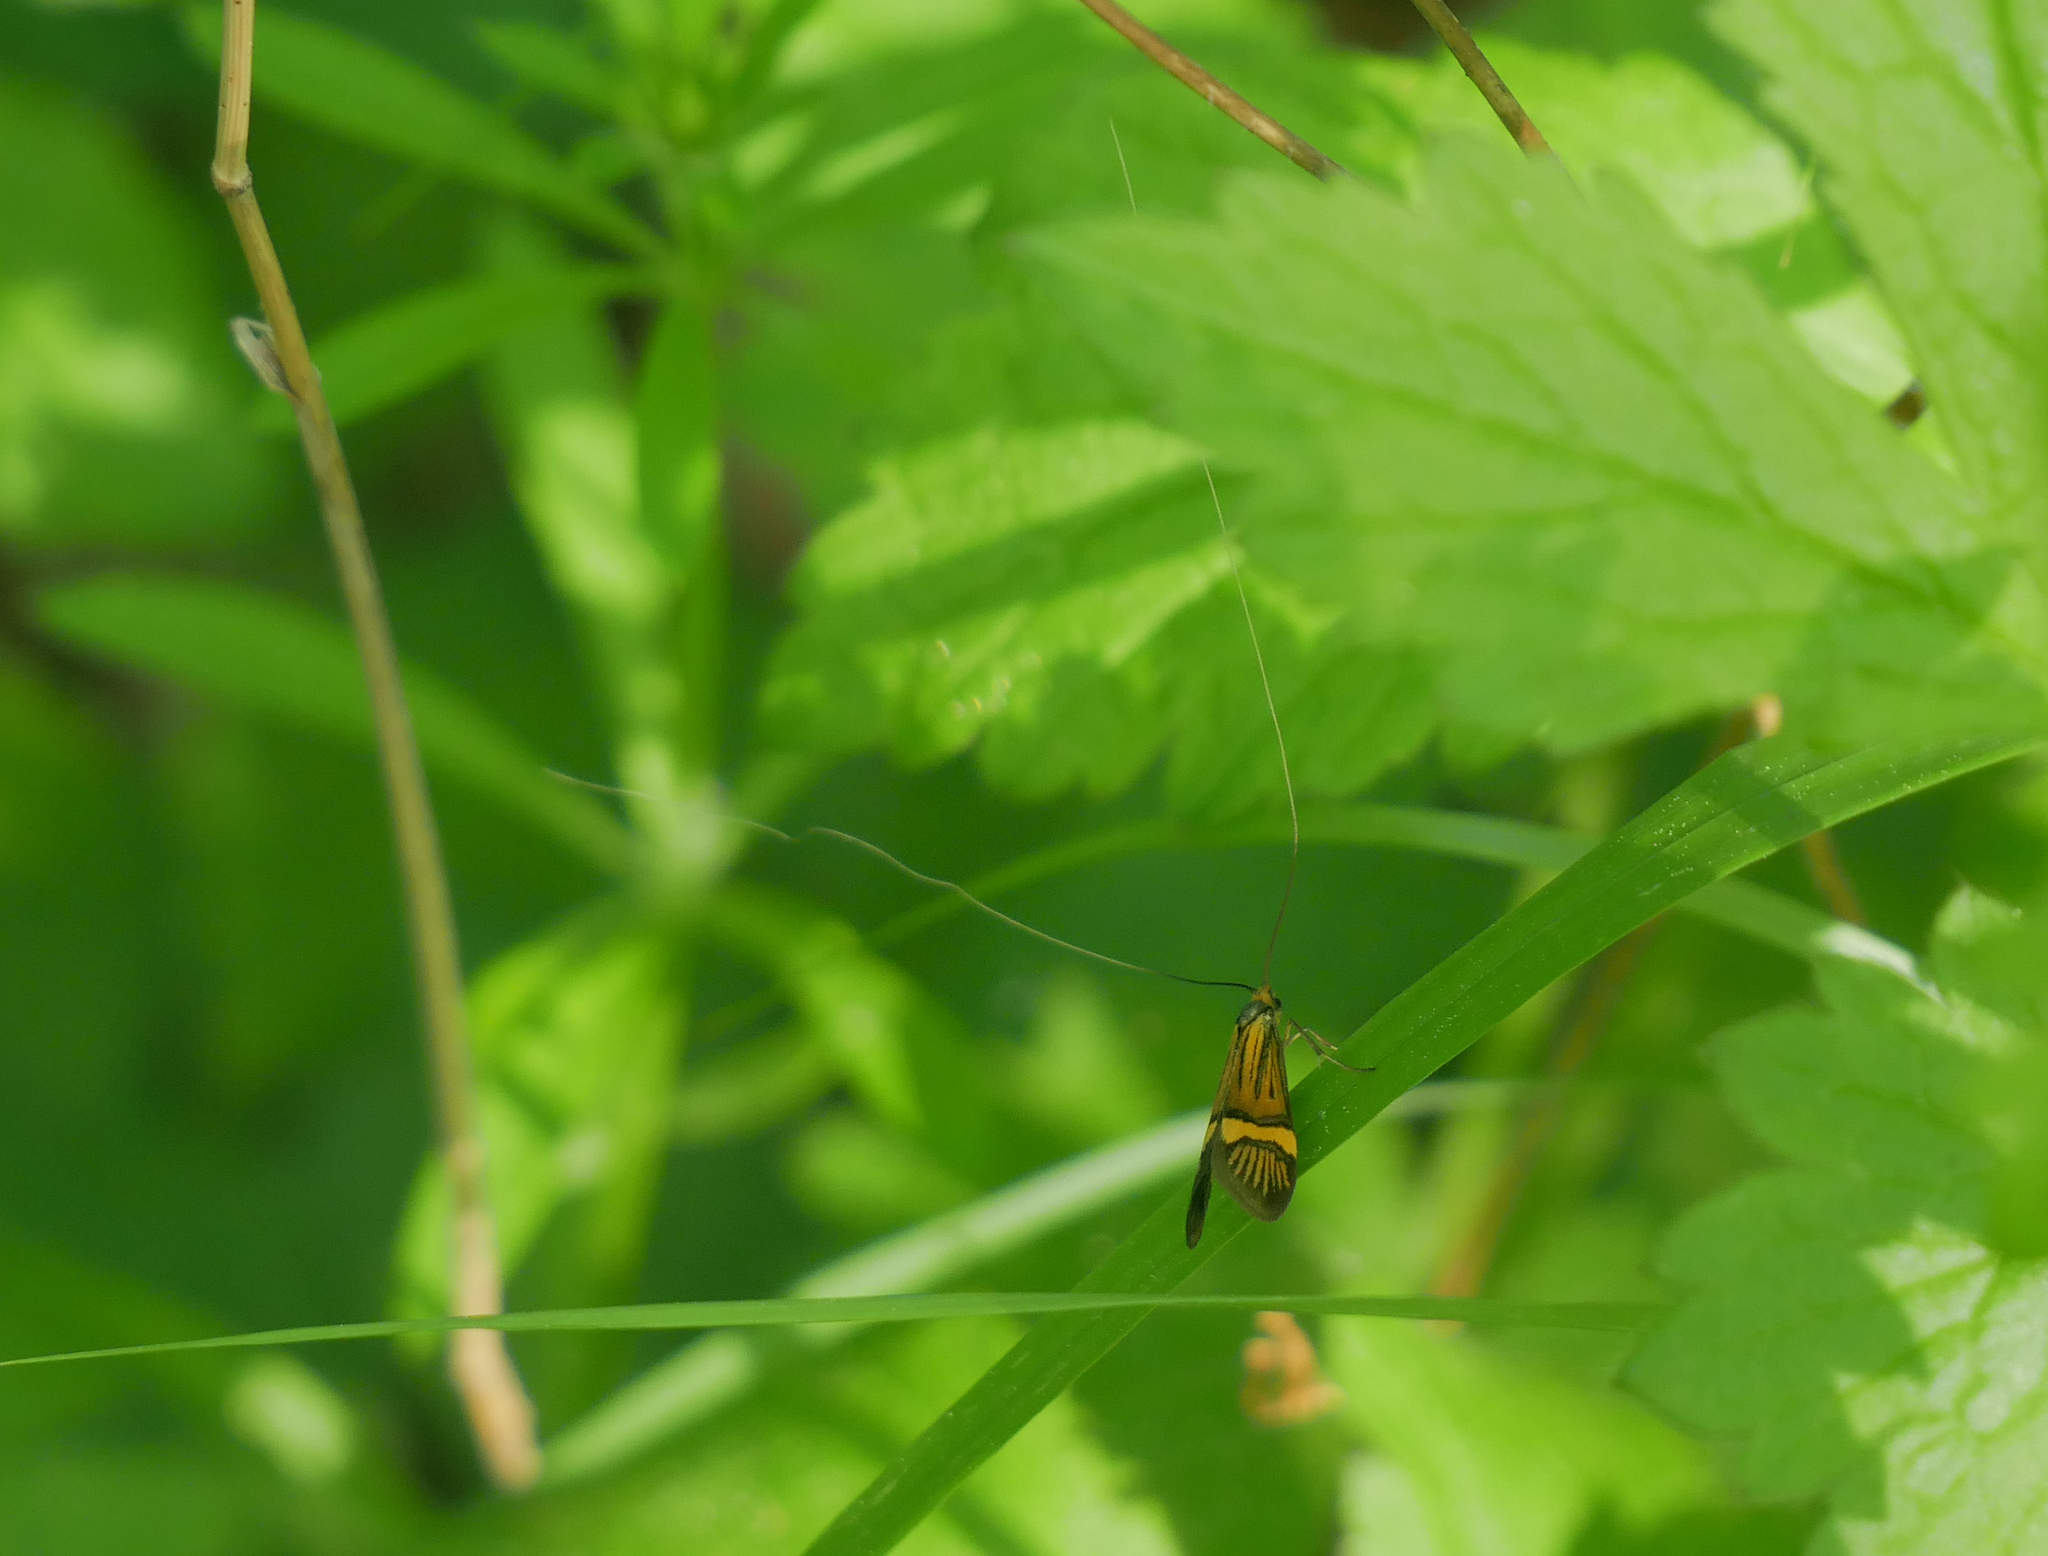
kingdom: Animalia
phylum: Arthropoda
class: Insecta
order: Lepidoptera
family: Adelidae
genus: Nemophora
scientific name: Nemophora
